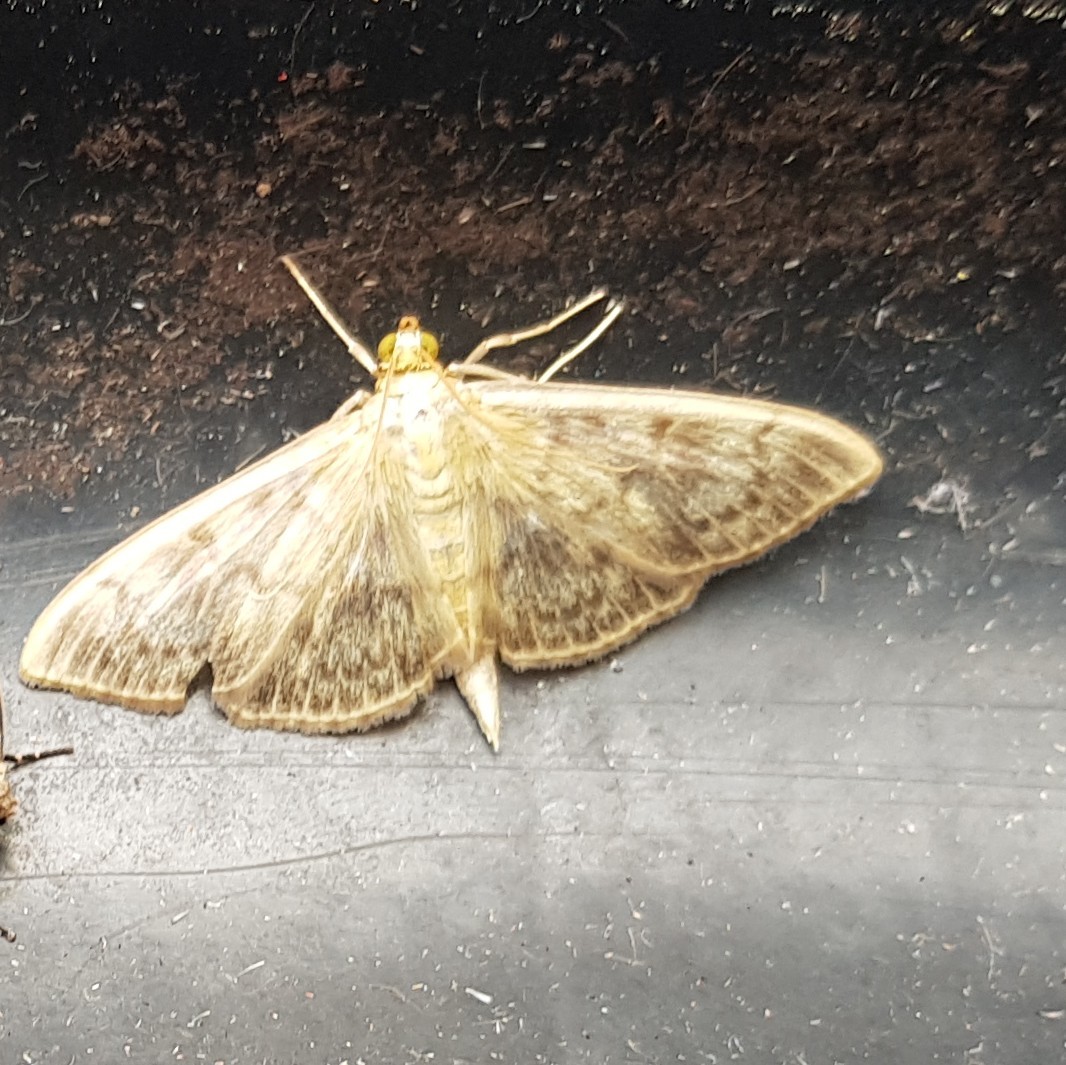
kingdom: Animalia
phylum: Arthropoda
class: Insecta
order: Lepidoptera
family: Crambidae
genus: Patania
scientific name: Patania ruralis
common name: Mother of pearl
